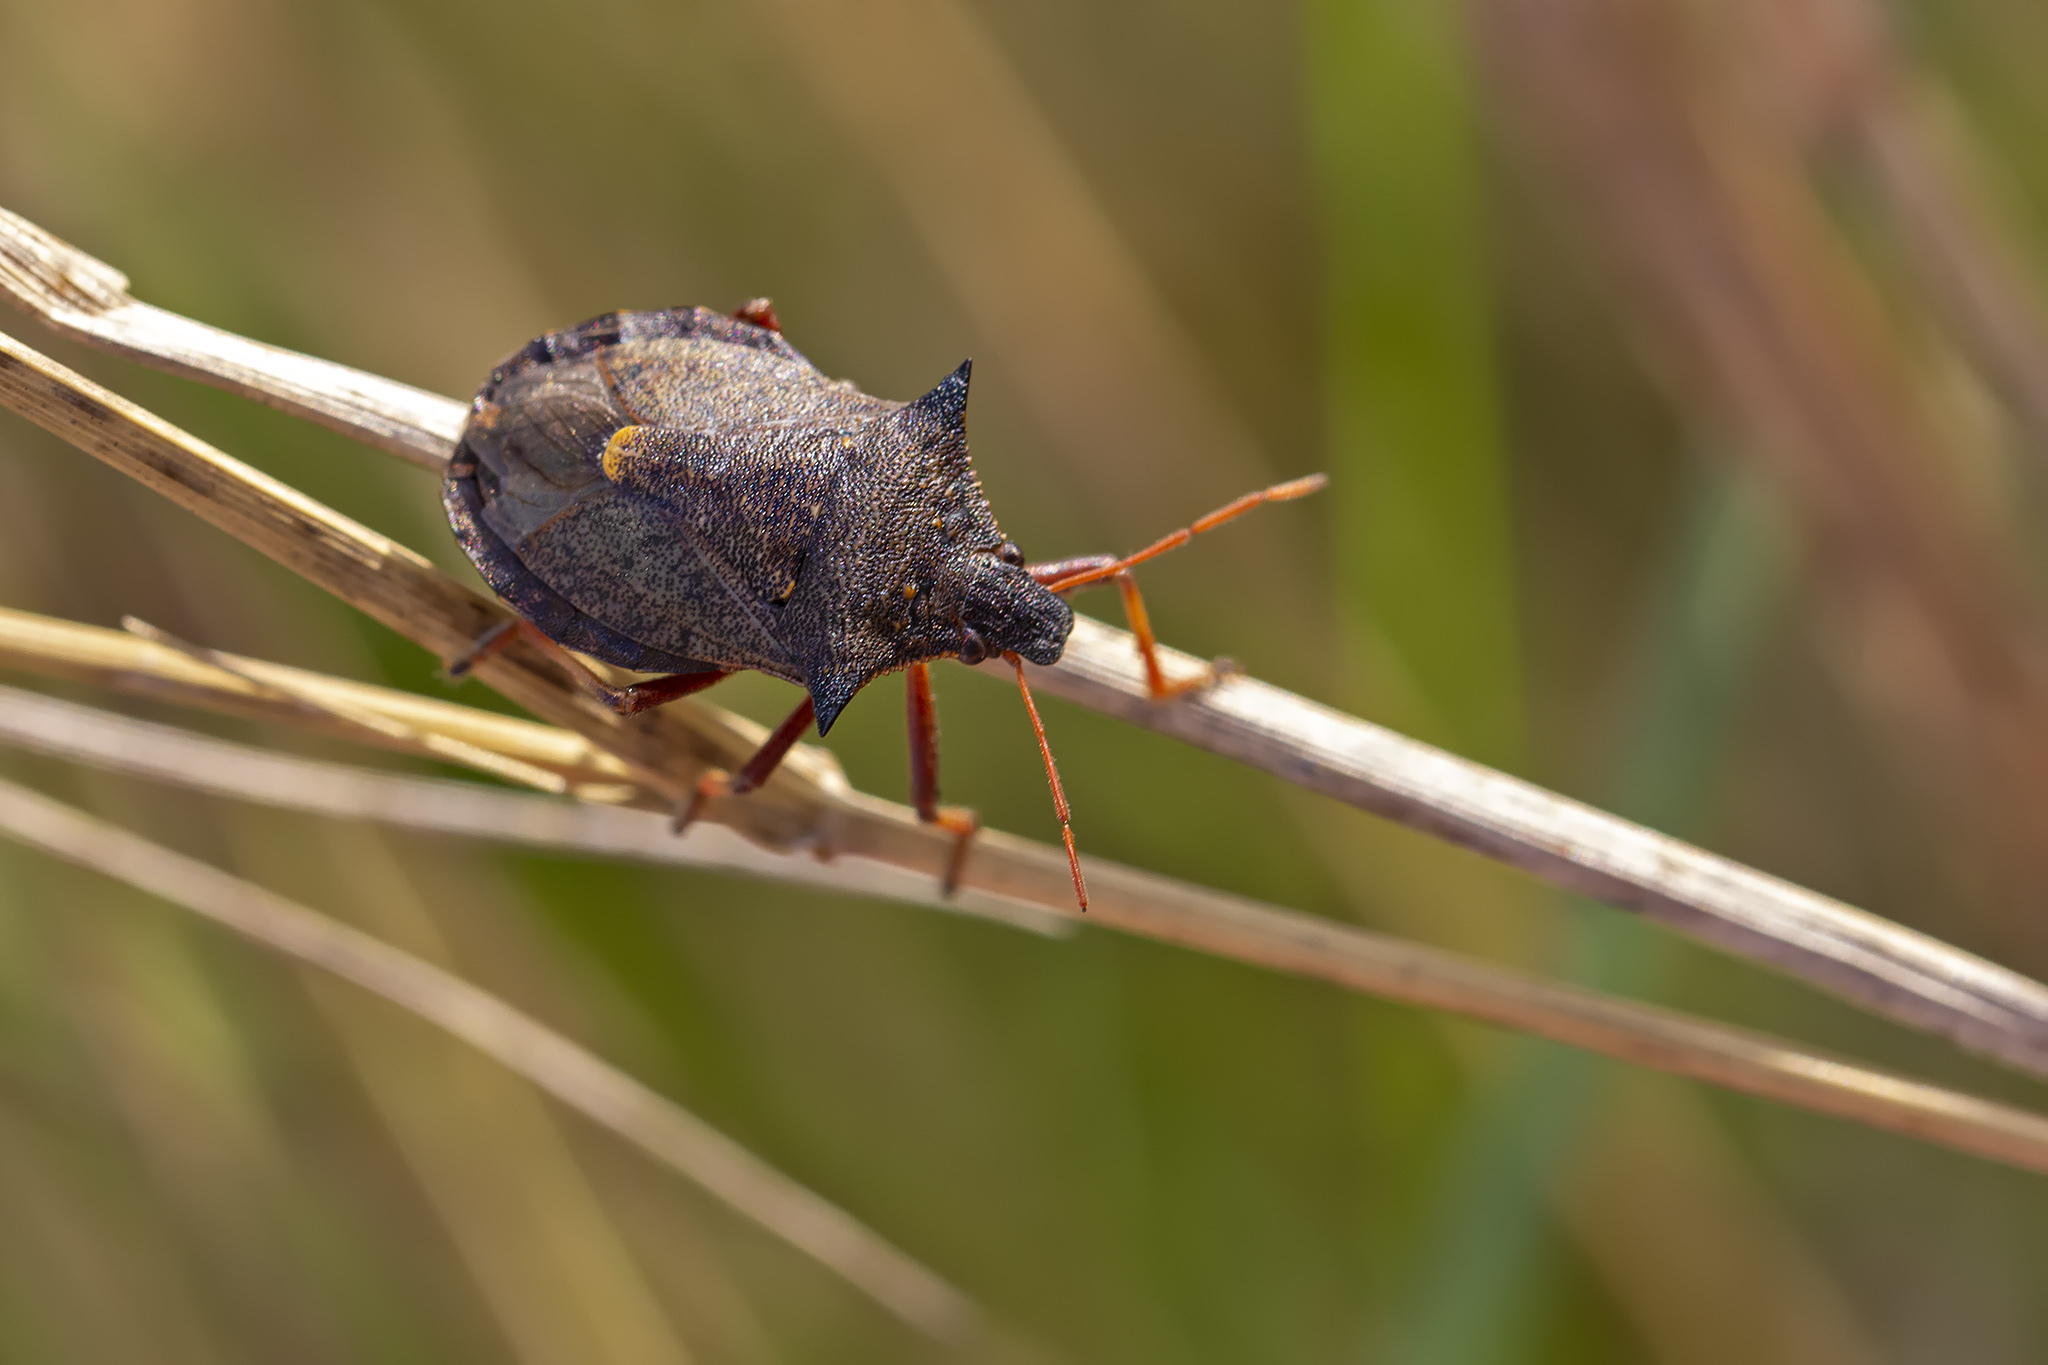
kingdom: Animalia
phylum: Arthropoda
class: Insecta
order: Hemiptera
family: Pentatomidae
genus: Picromerus
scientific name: Picromerus bidens
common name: Spiked shieldbug
